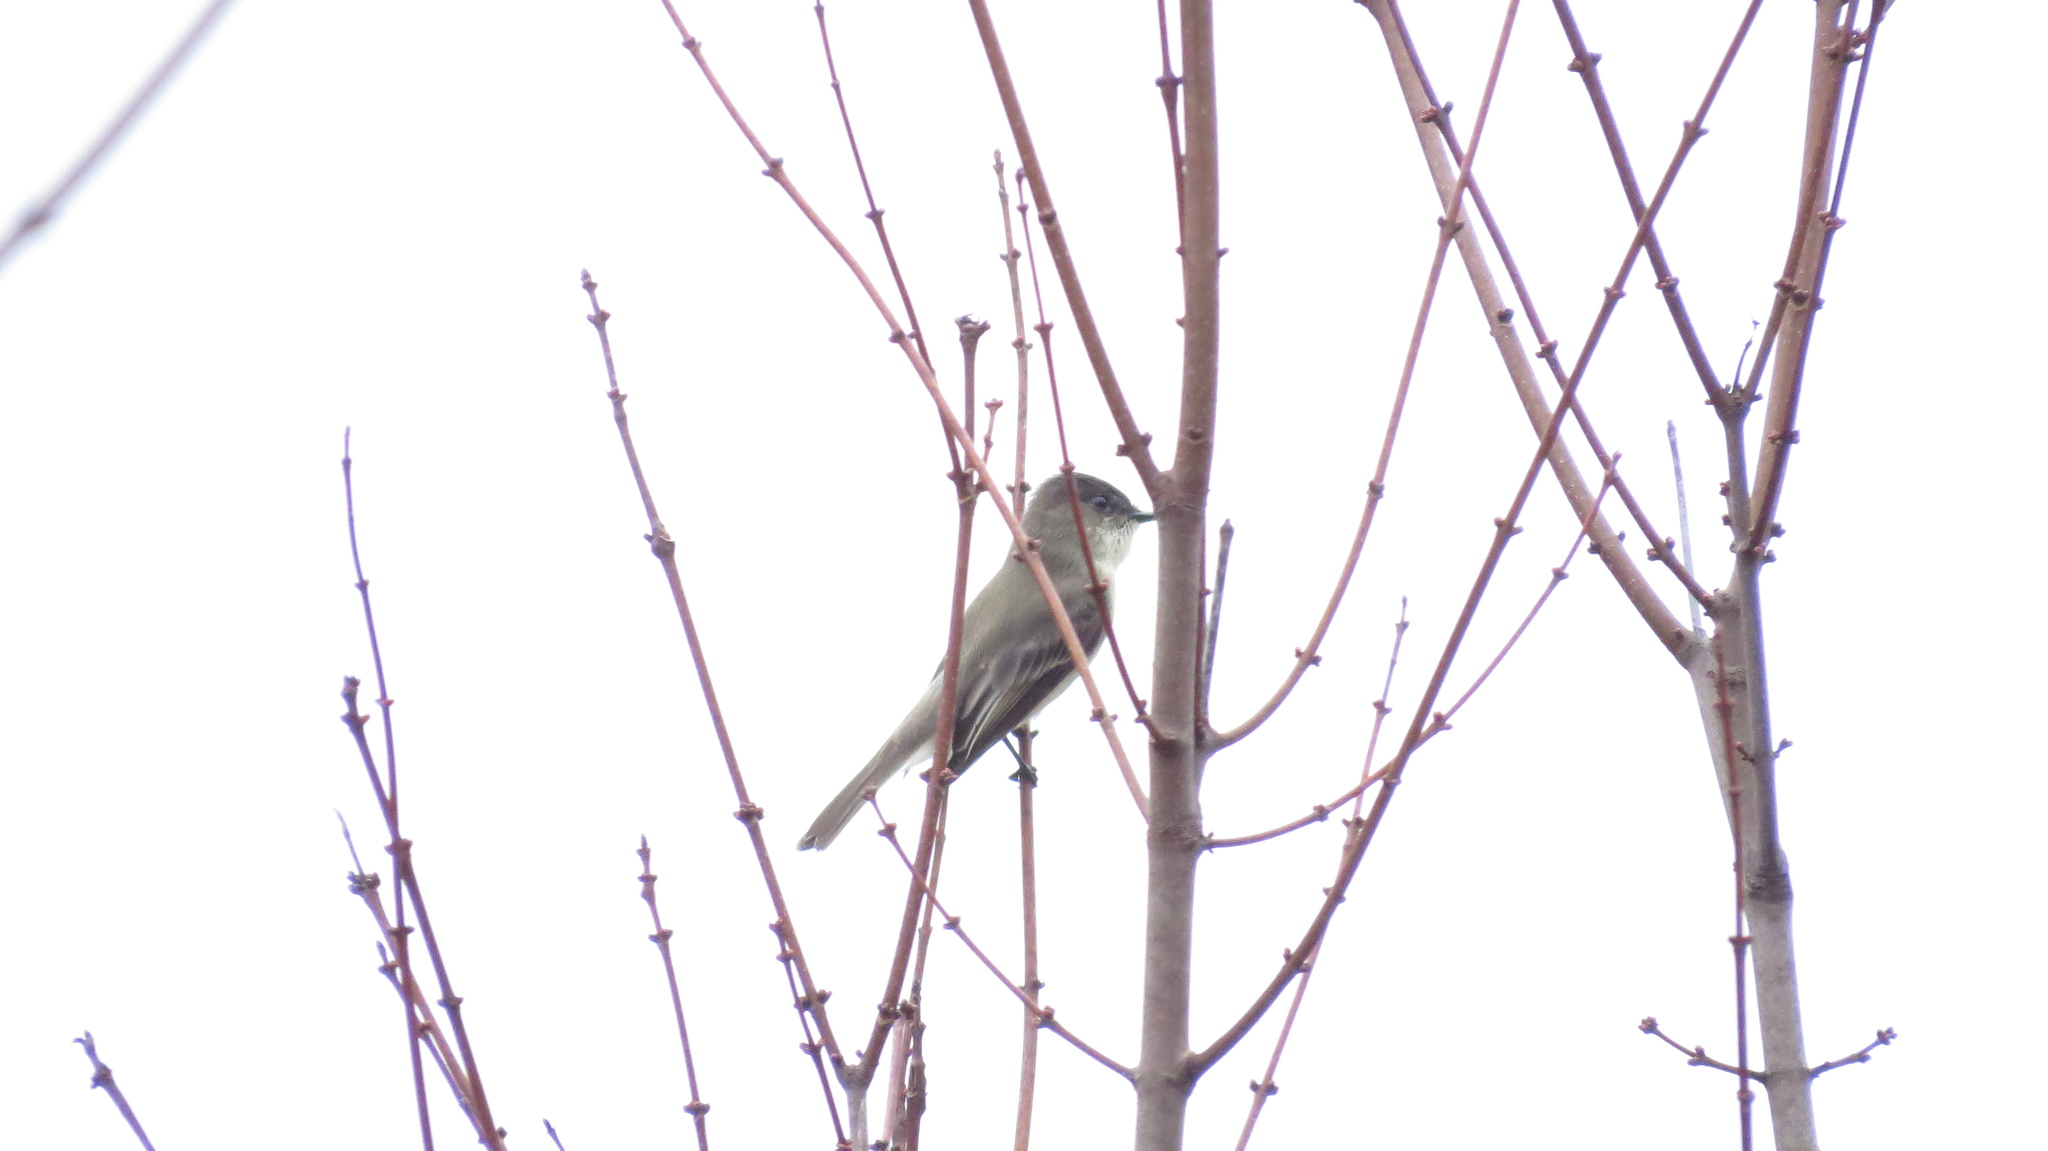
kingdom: Animalia
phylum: Chordata
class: Aves
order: Passeriformes
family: Tyrannidae
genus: Sayornis
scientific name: Sayornis phoebe
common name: Eastern phoebe
